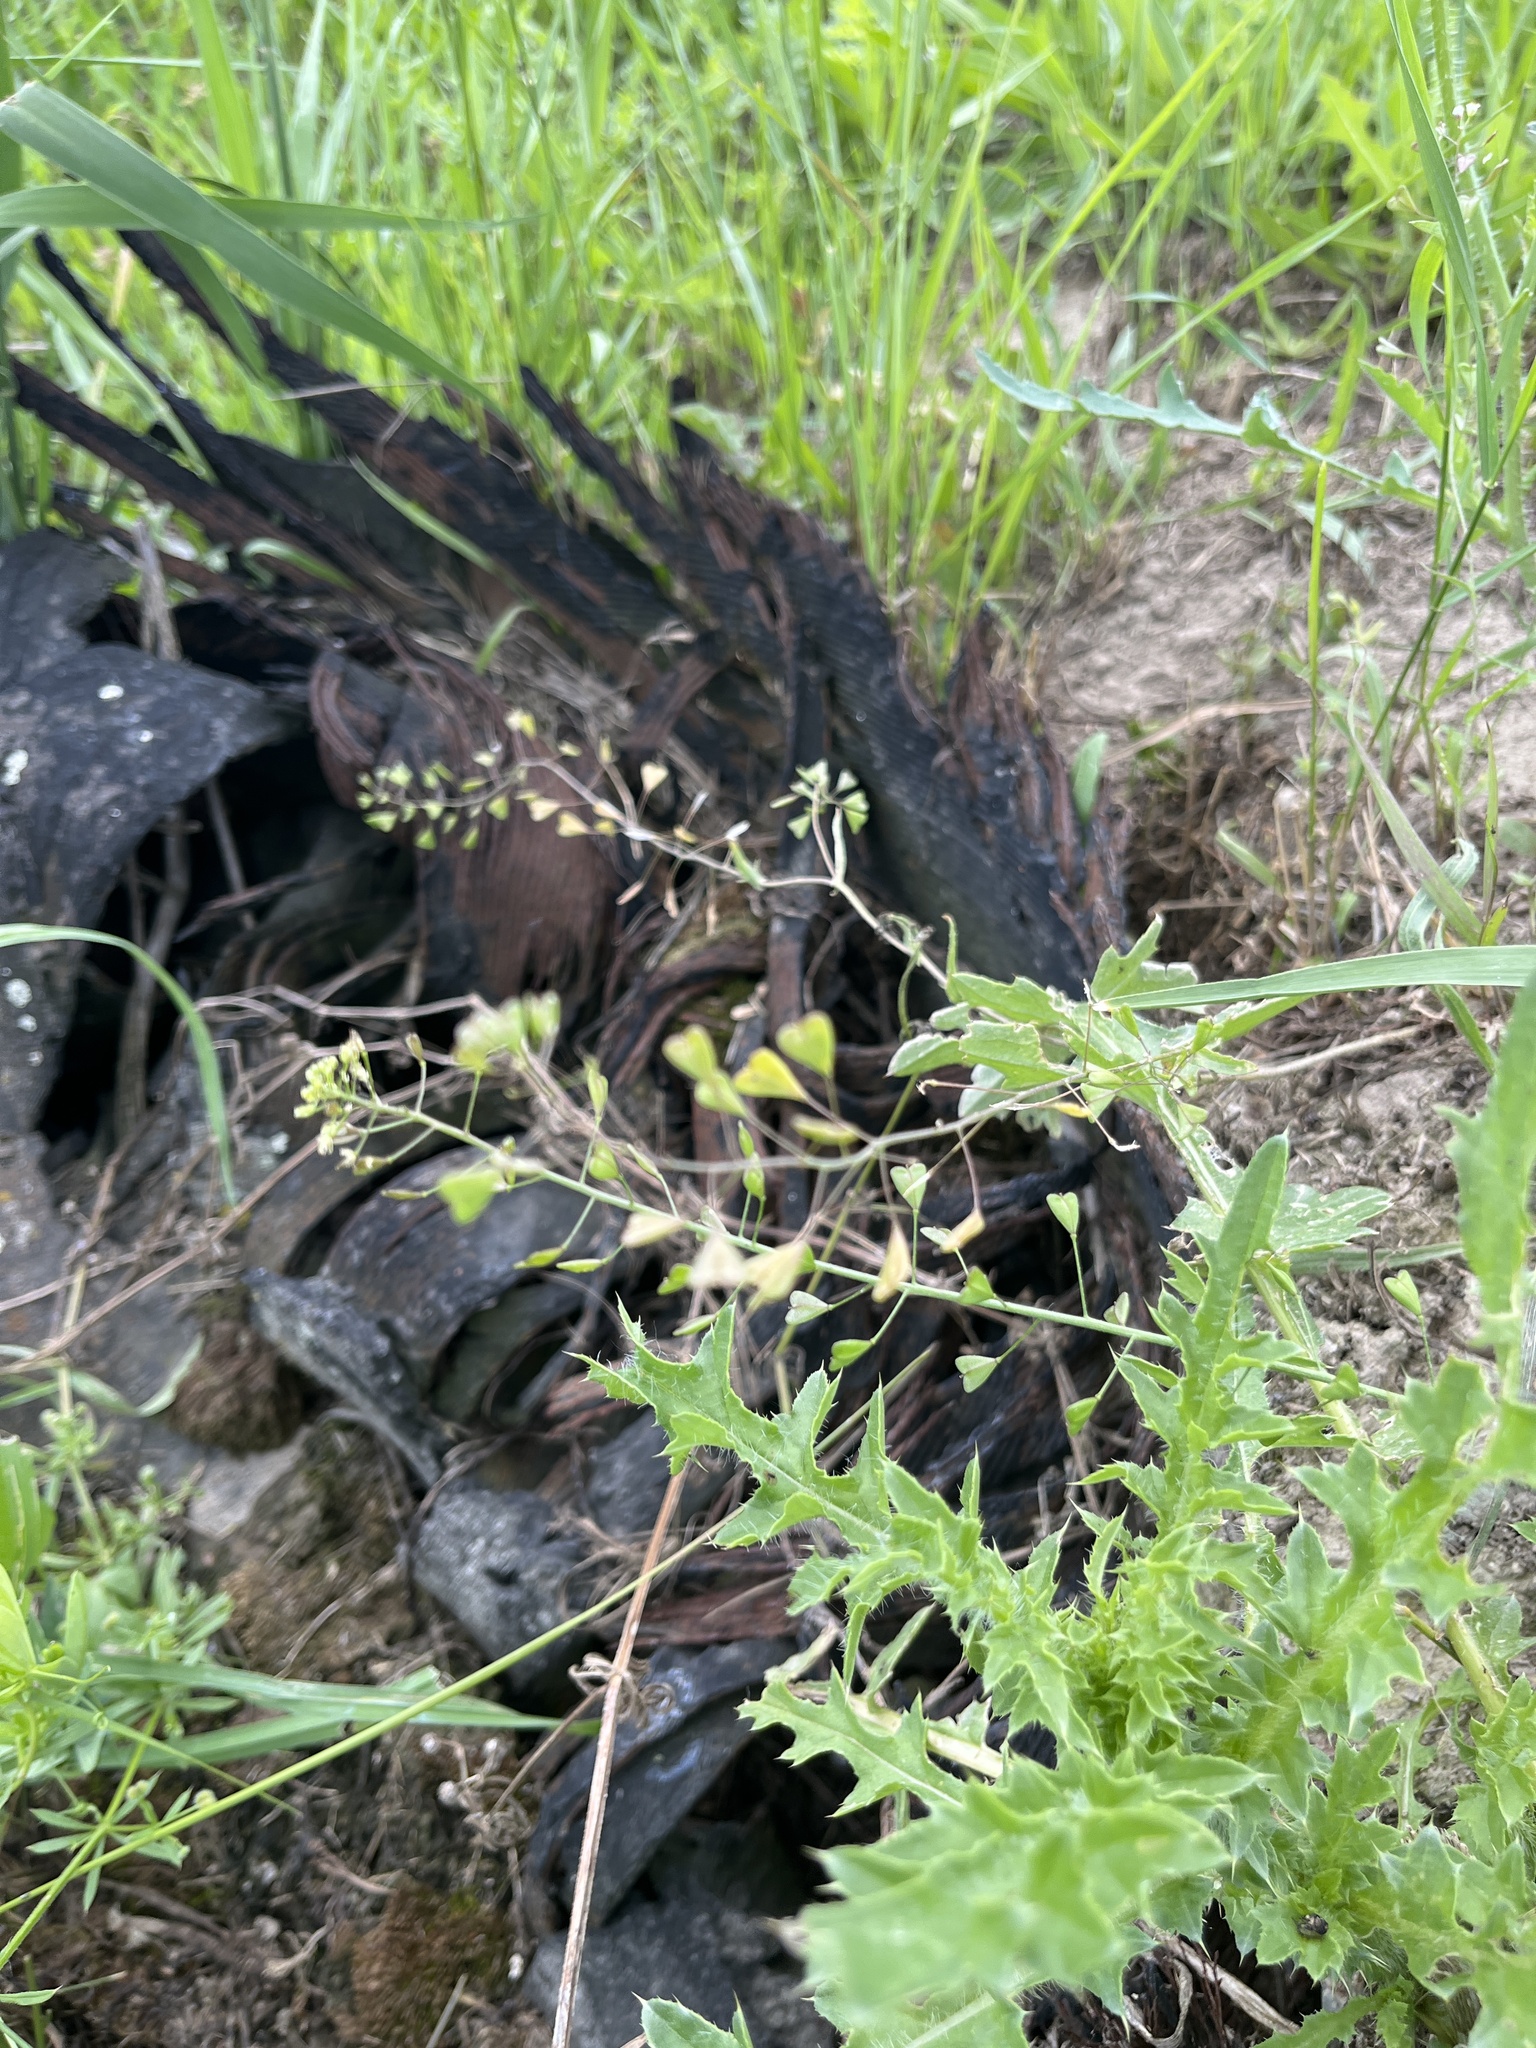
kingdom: Plantae
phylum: Tracheophyta
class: Magnoliopsida
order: Brassicales
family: Brassicaceae
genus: Capsella
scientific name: Capsella bursa-pastoris
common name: Shepherd's purse
